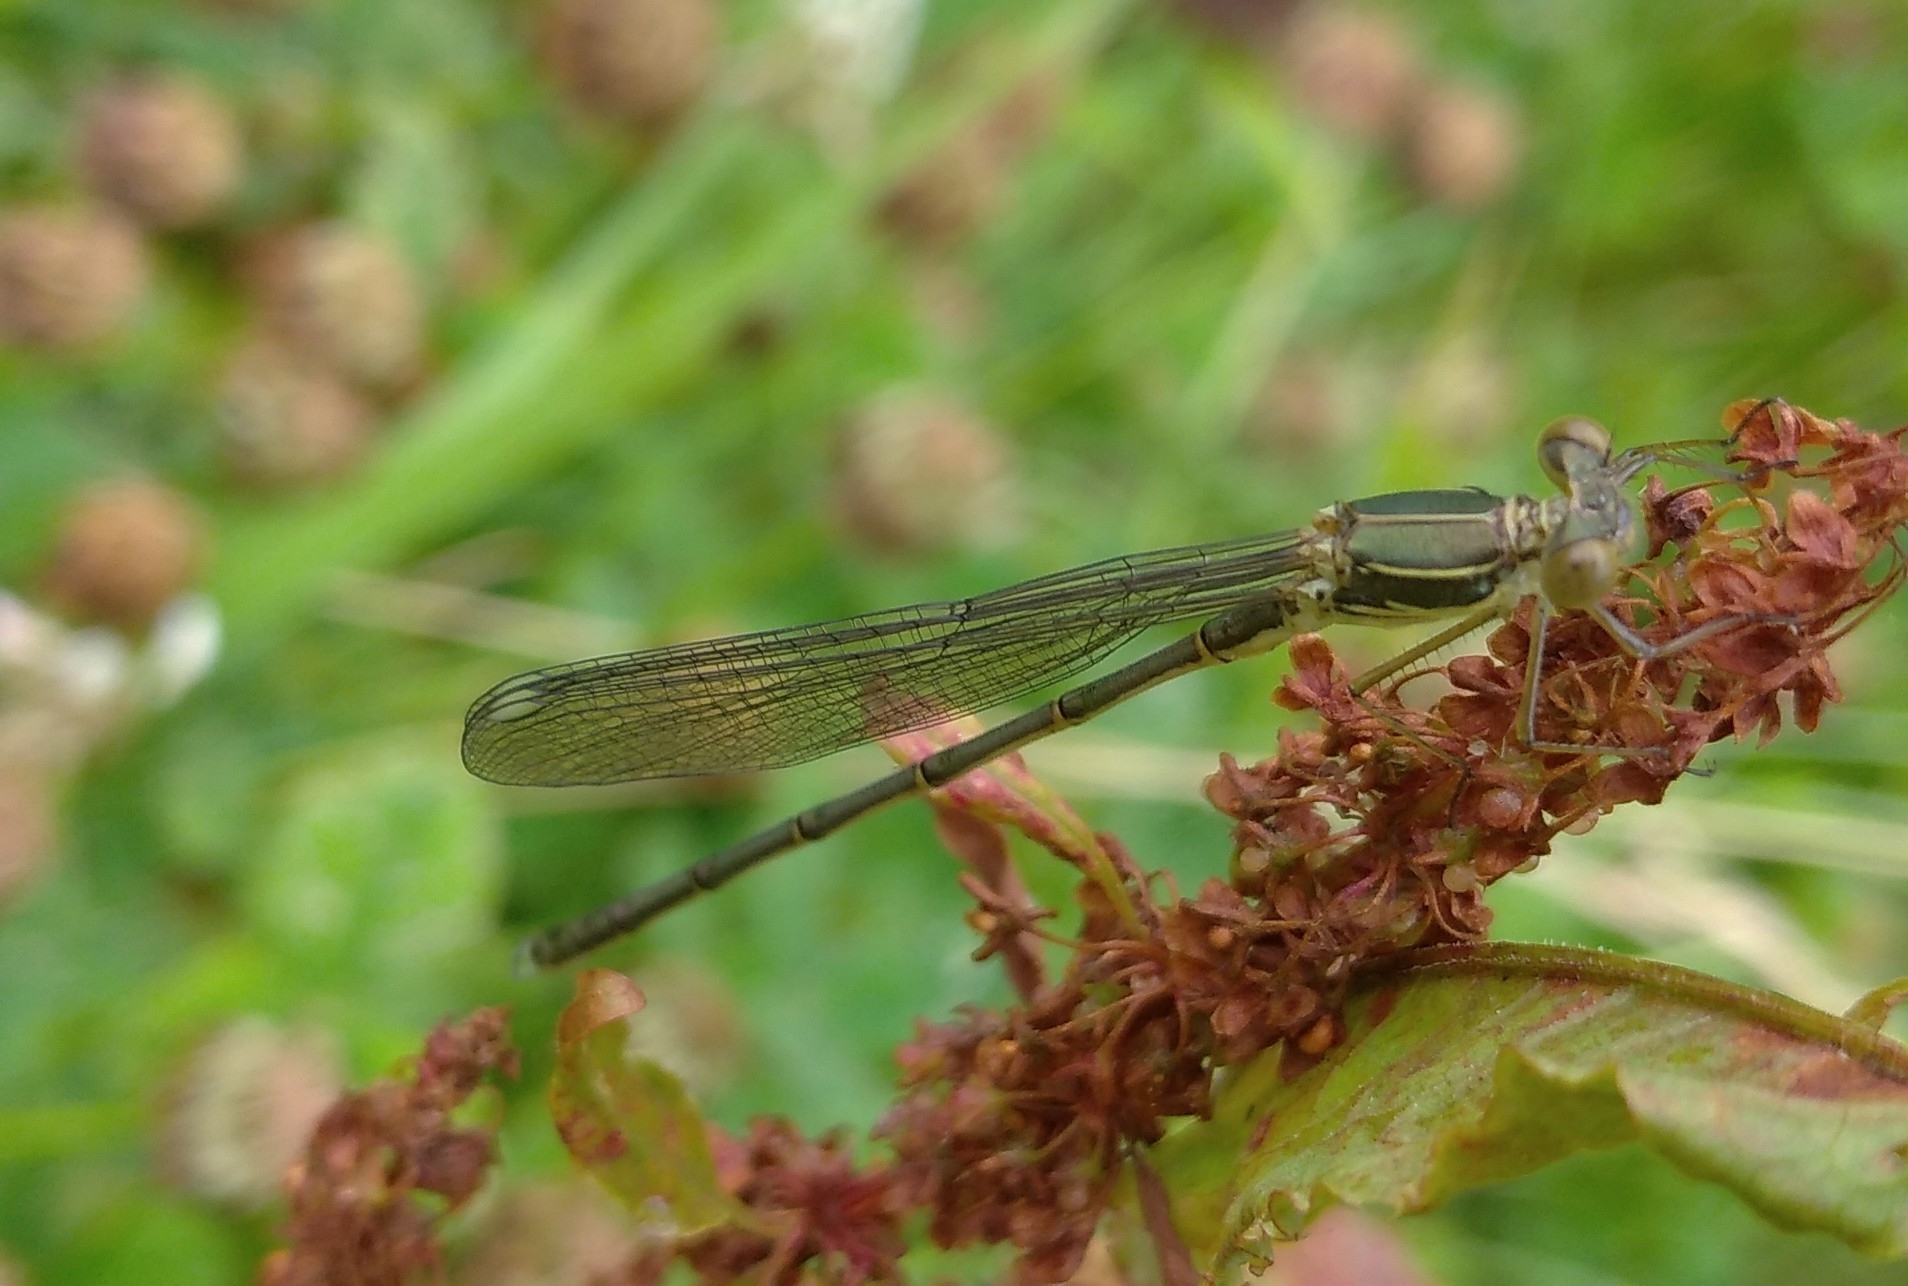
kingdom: Animalia
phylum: Arthropoda
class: Insecta
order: Odonata
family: Lestidae
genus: Chalcolestes
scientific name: Chalcolestes viridis
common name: Green emerald damselfly
